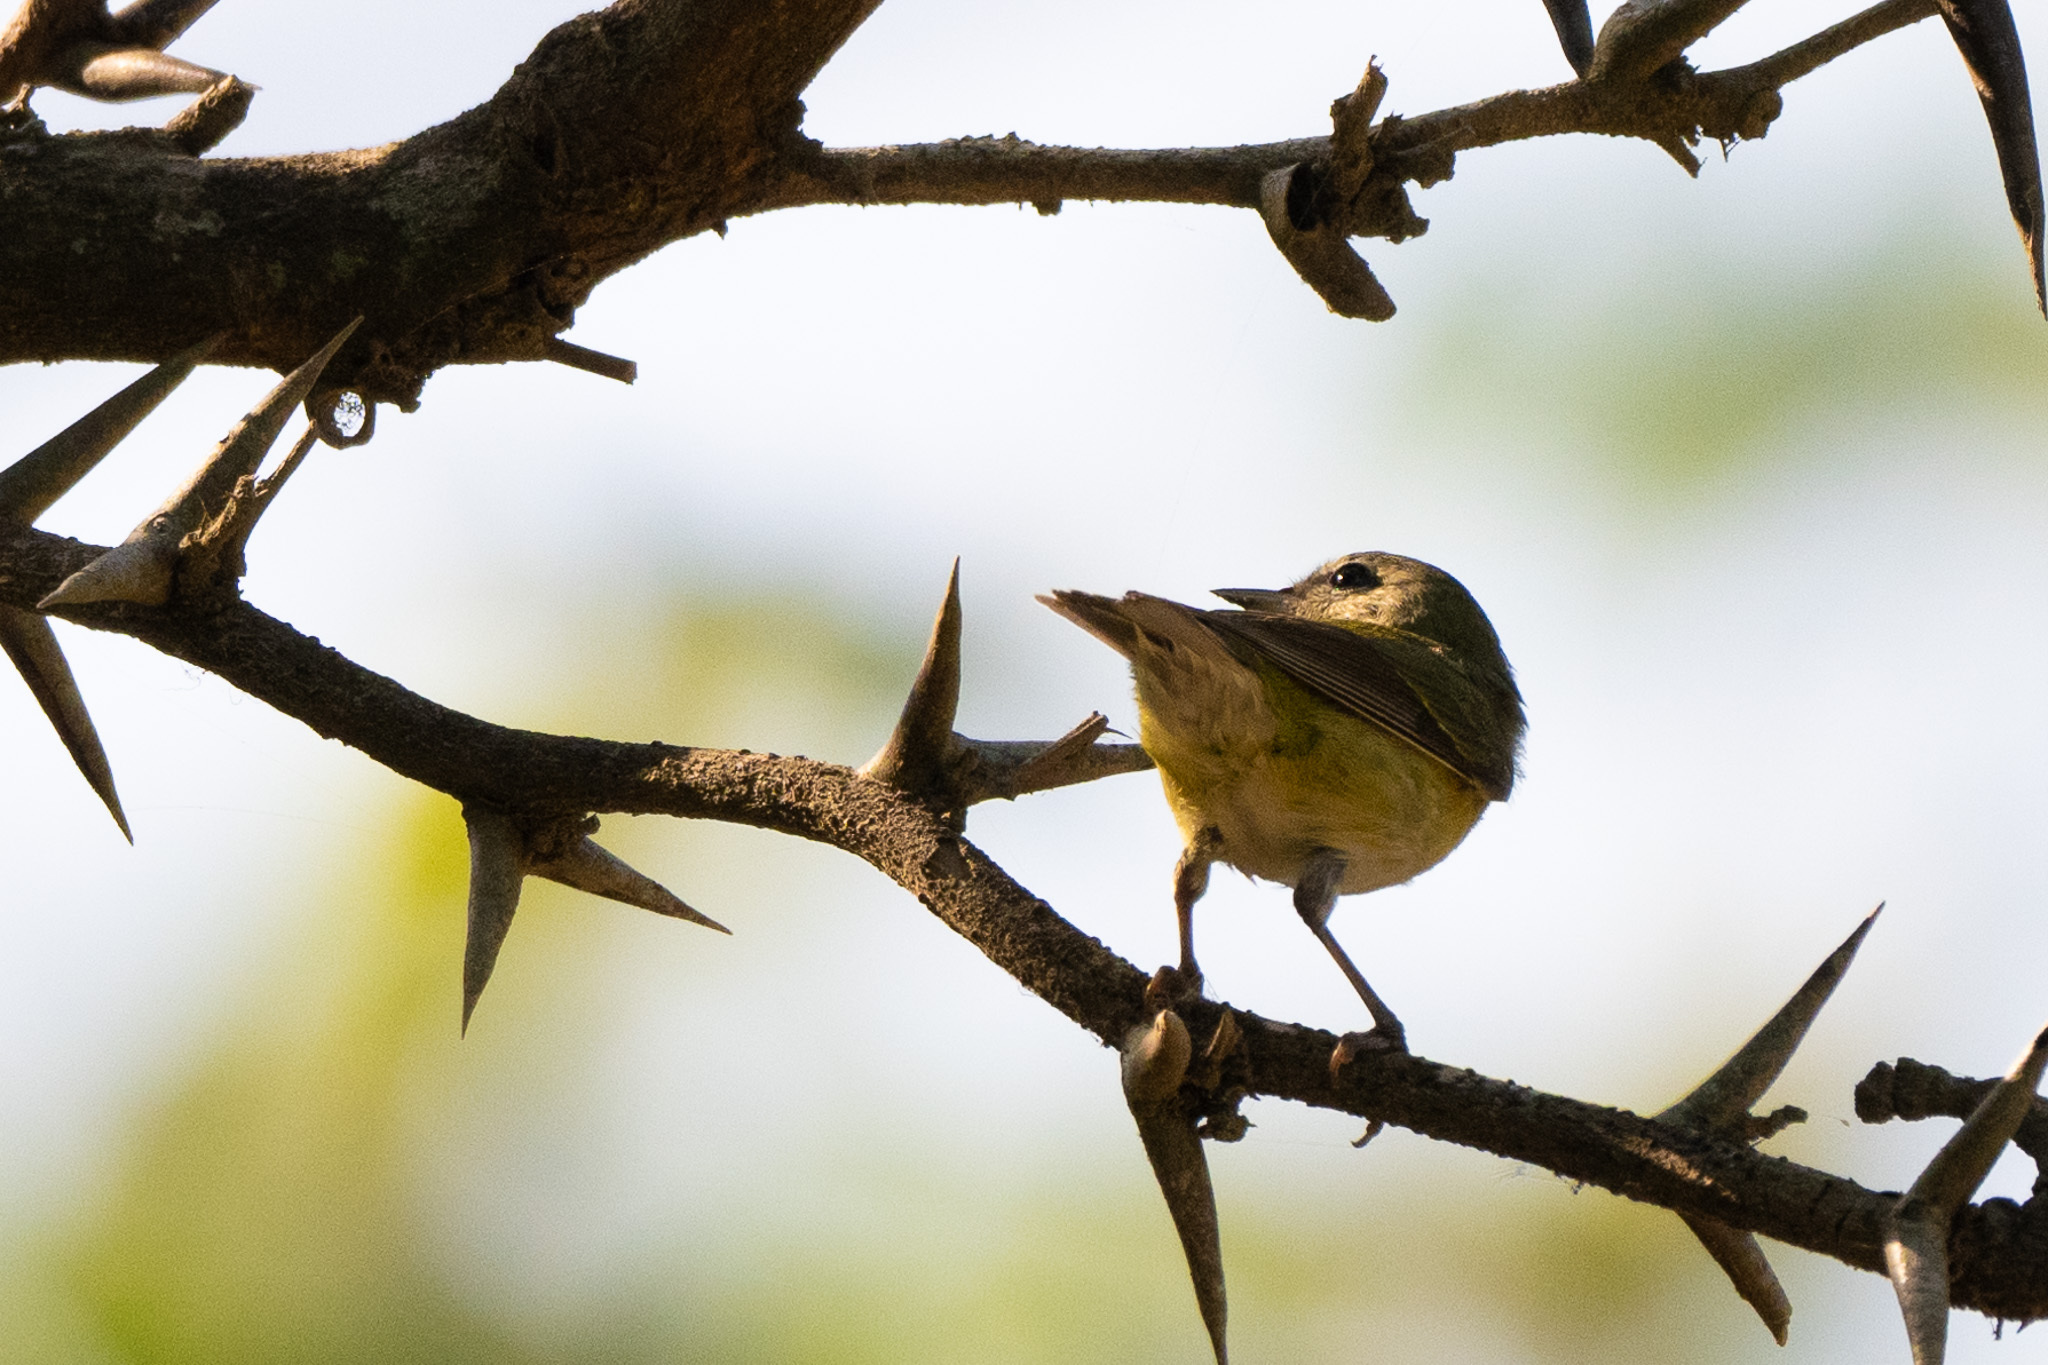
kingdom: Animalia
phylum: Chordata
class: Aves
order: Passeriformes
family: Parulidae
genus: Leiothlypis
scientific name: Leiothlypis peregrina
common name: Tennessee warbler
